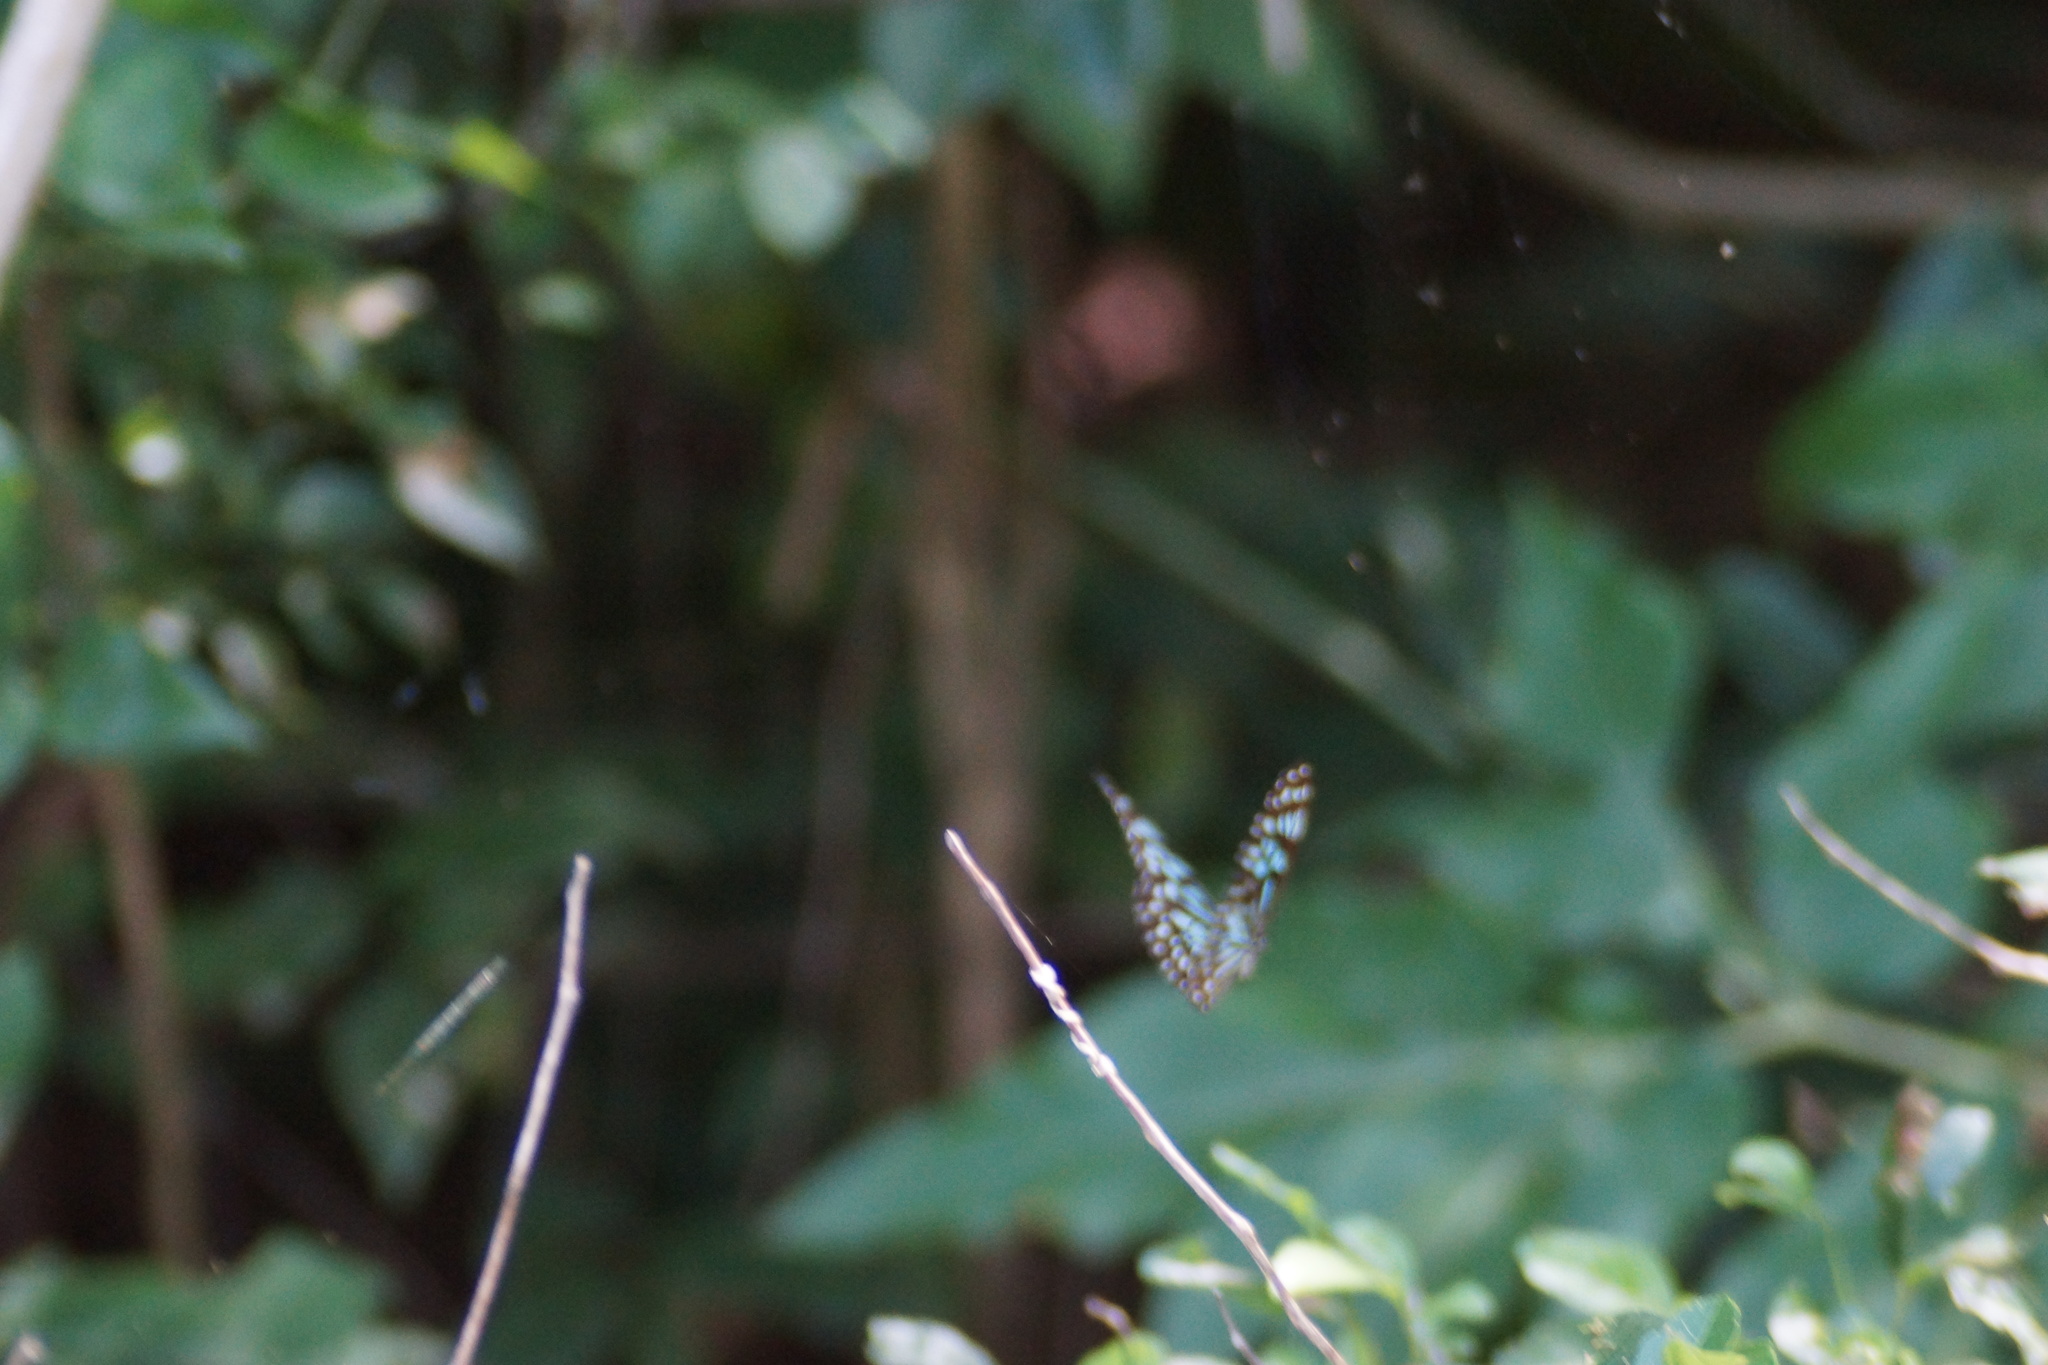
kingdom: Animalia
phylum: Arthropoda
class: Insecta
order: Lepidoptera
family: Nymphalidae
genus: Tirumala
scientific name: Tirumala hamata
